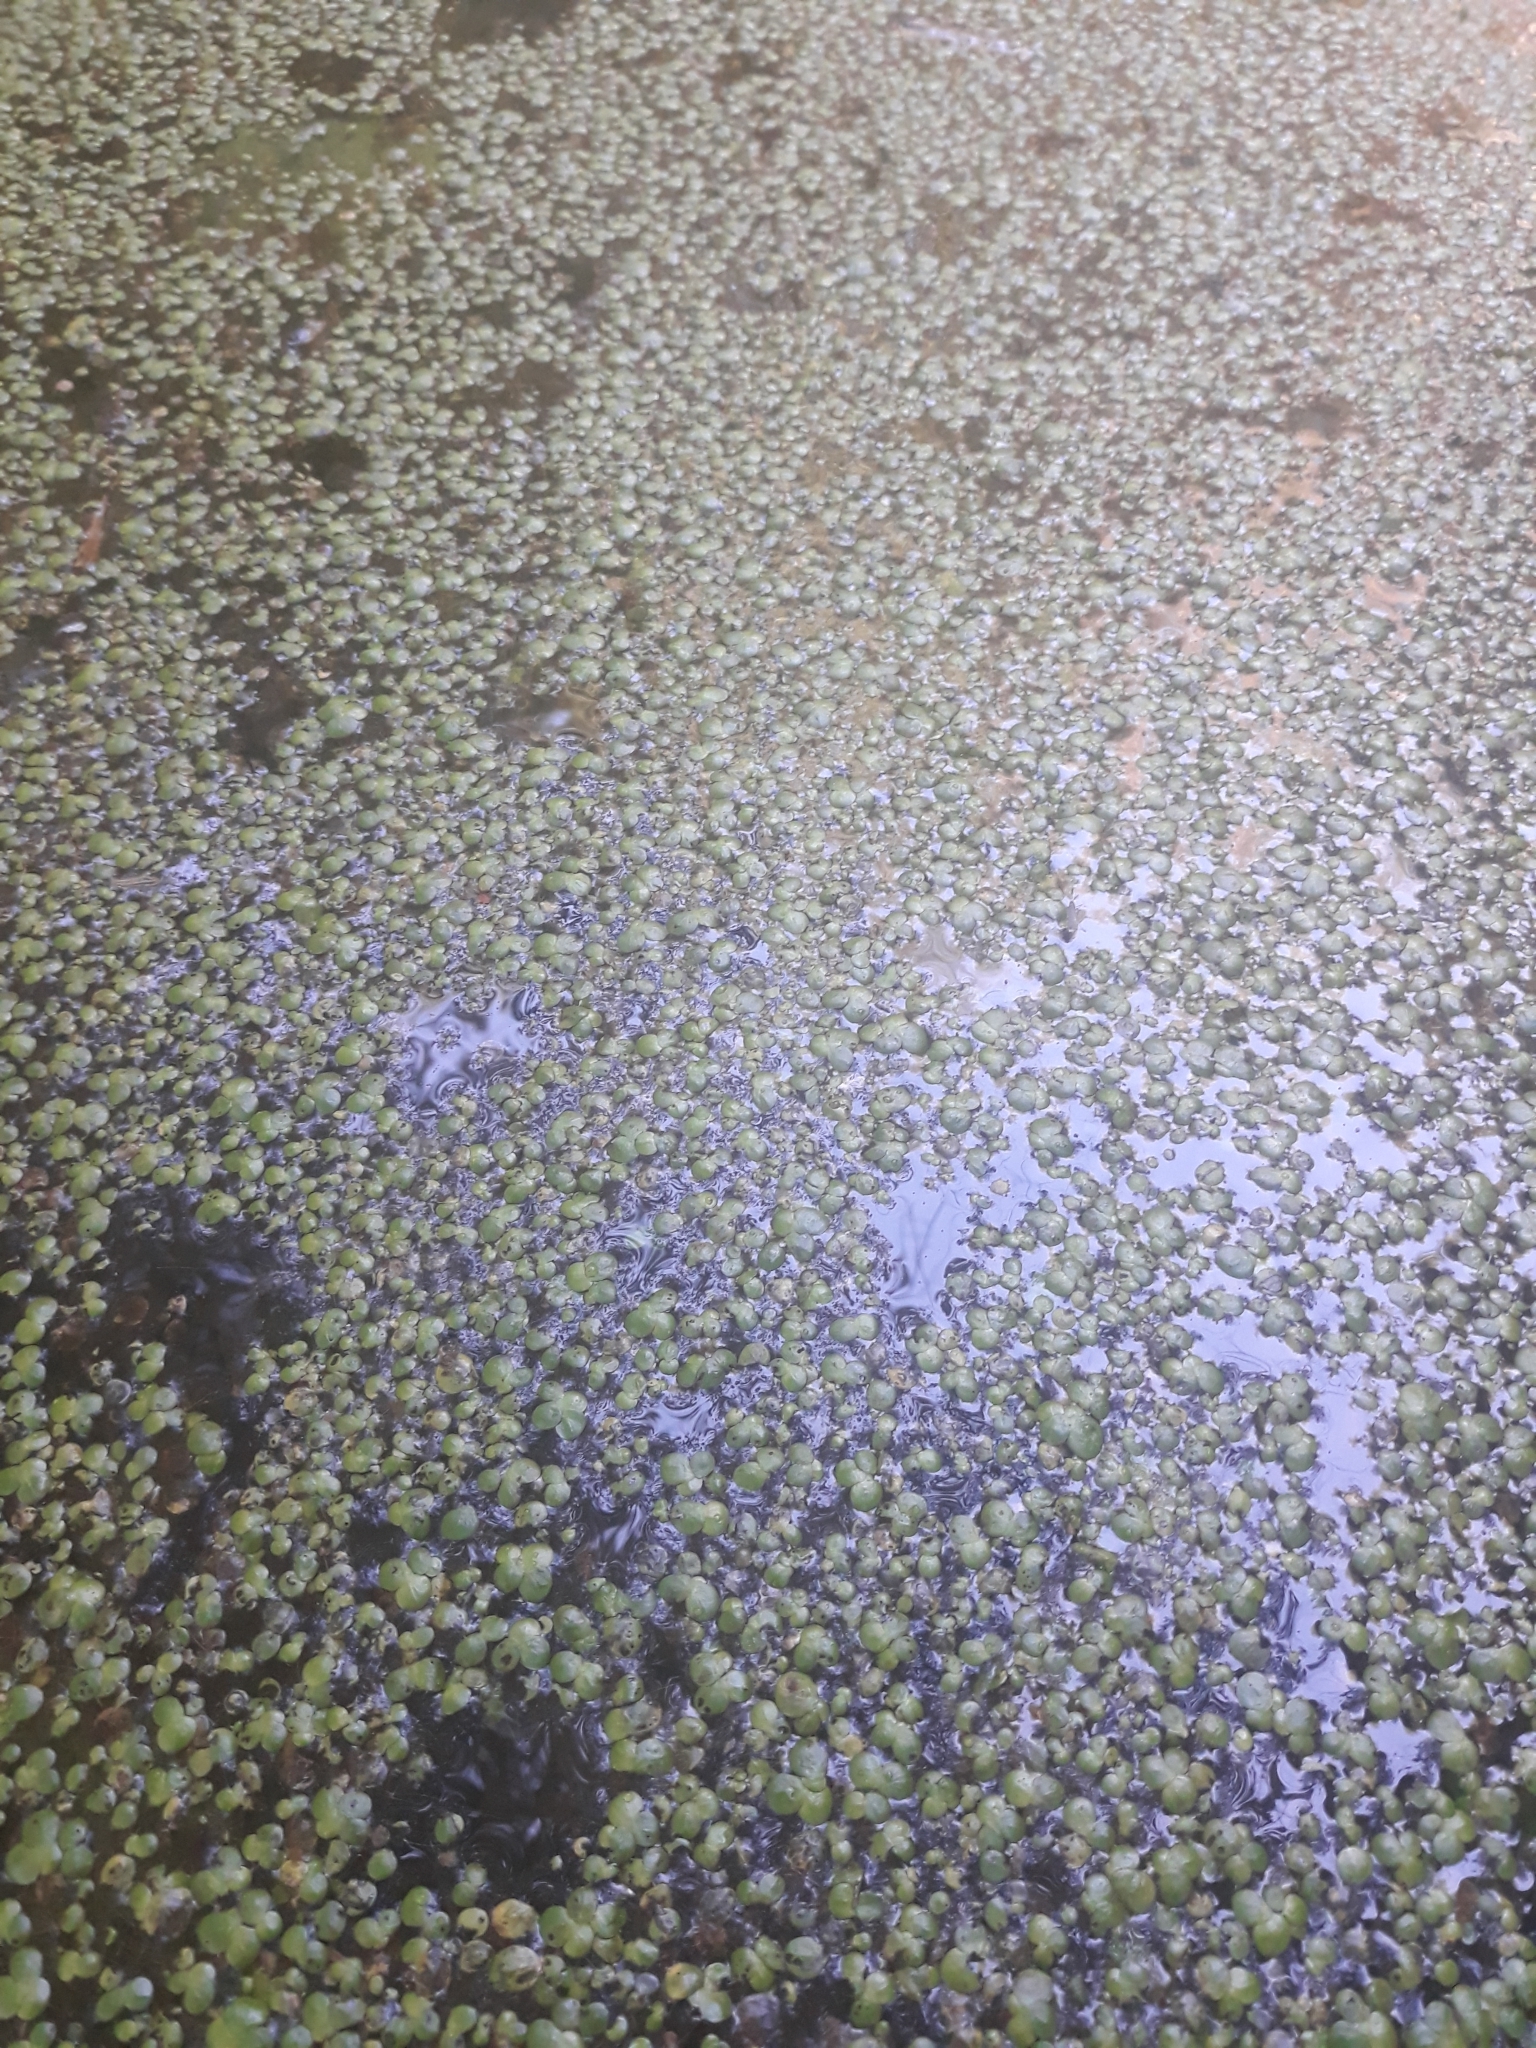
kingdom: Plantae
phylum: Tracheophyta
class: Liliopsida
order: Alismatales
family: Araceae
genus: Spirodela
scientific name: Spirodela polyrhiza
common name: Great duckweed
